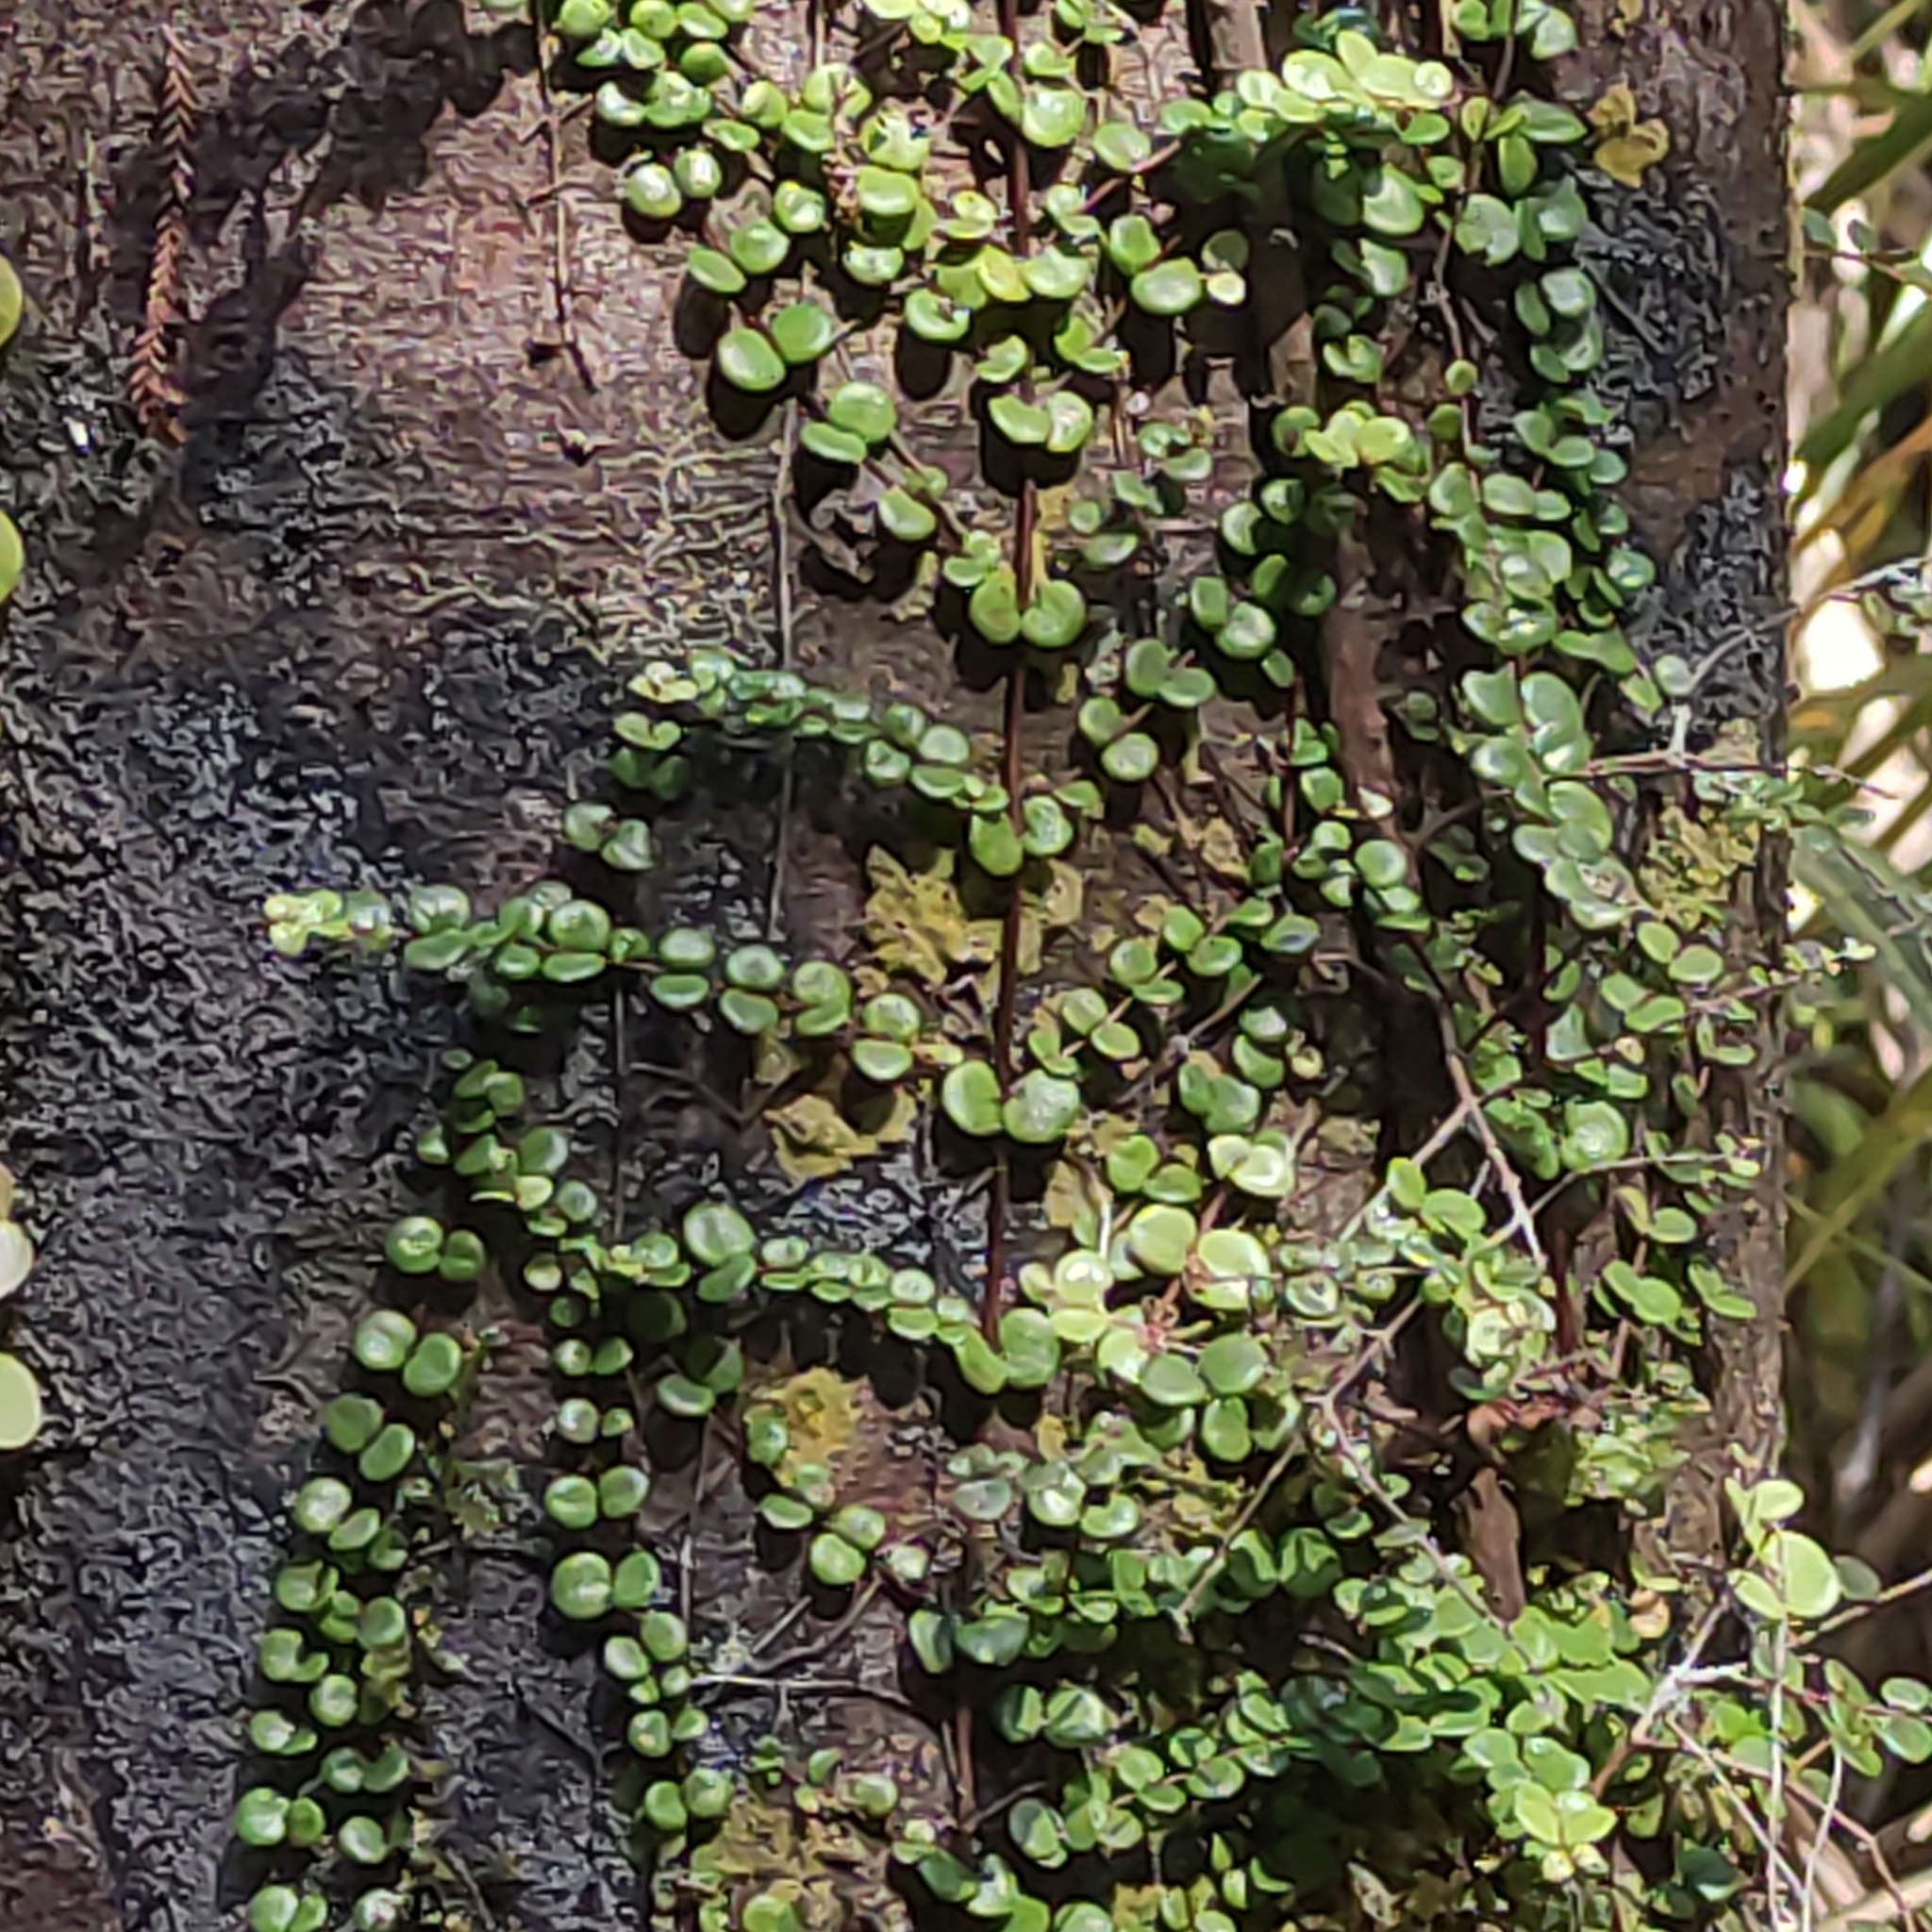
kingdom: Plantae
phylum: Tracheophyta
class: Magnoliopsida
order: Myrtales
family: Myrtaceae
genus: Metrosideros
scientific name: Metrosideros perforata
